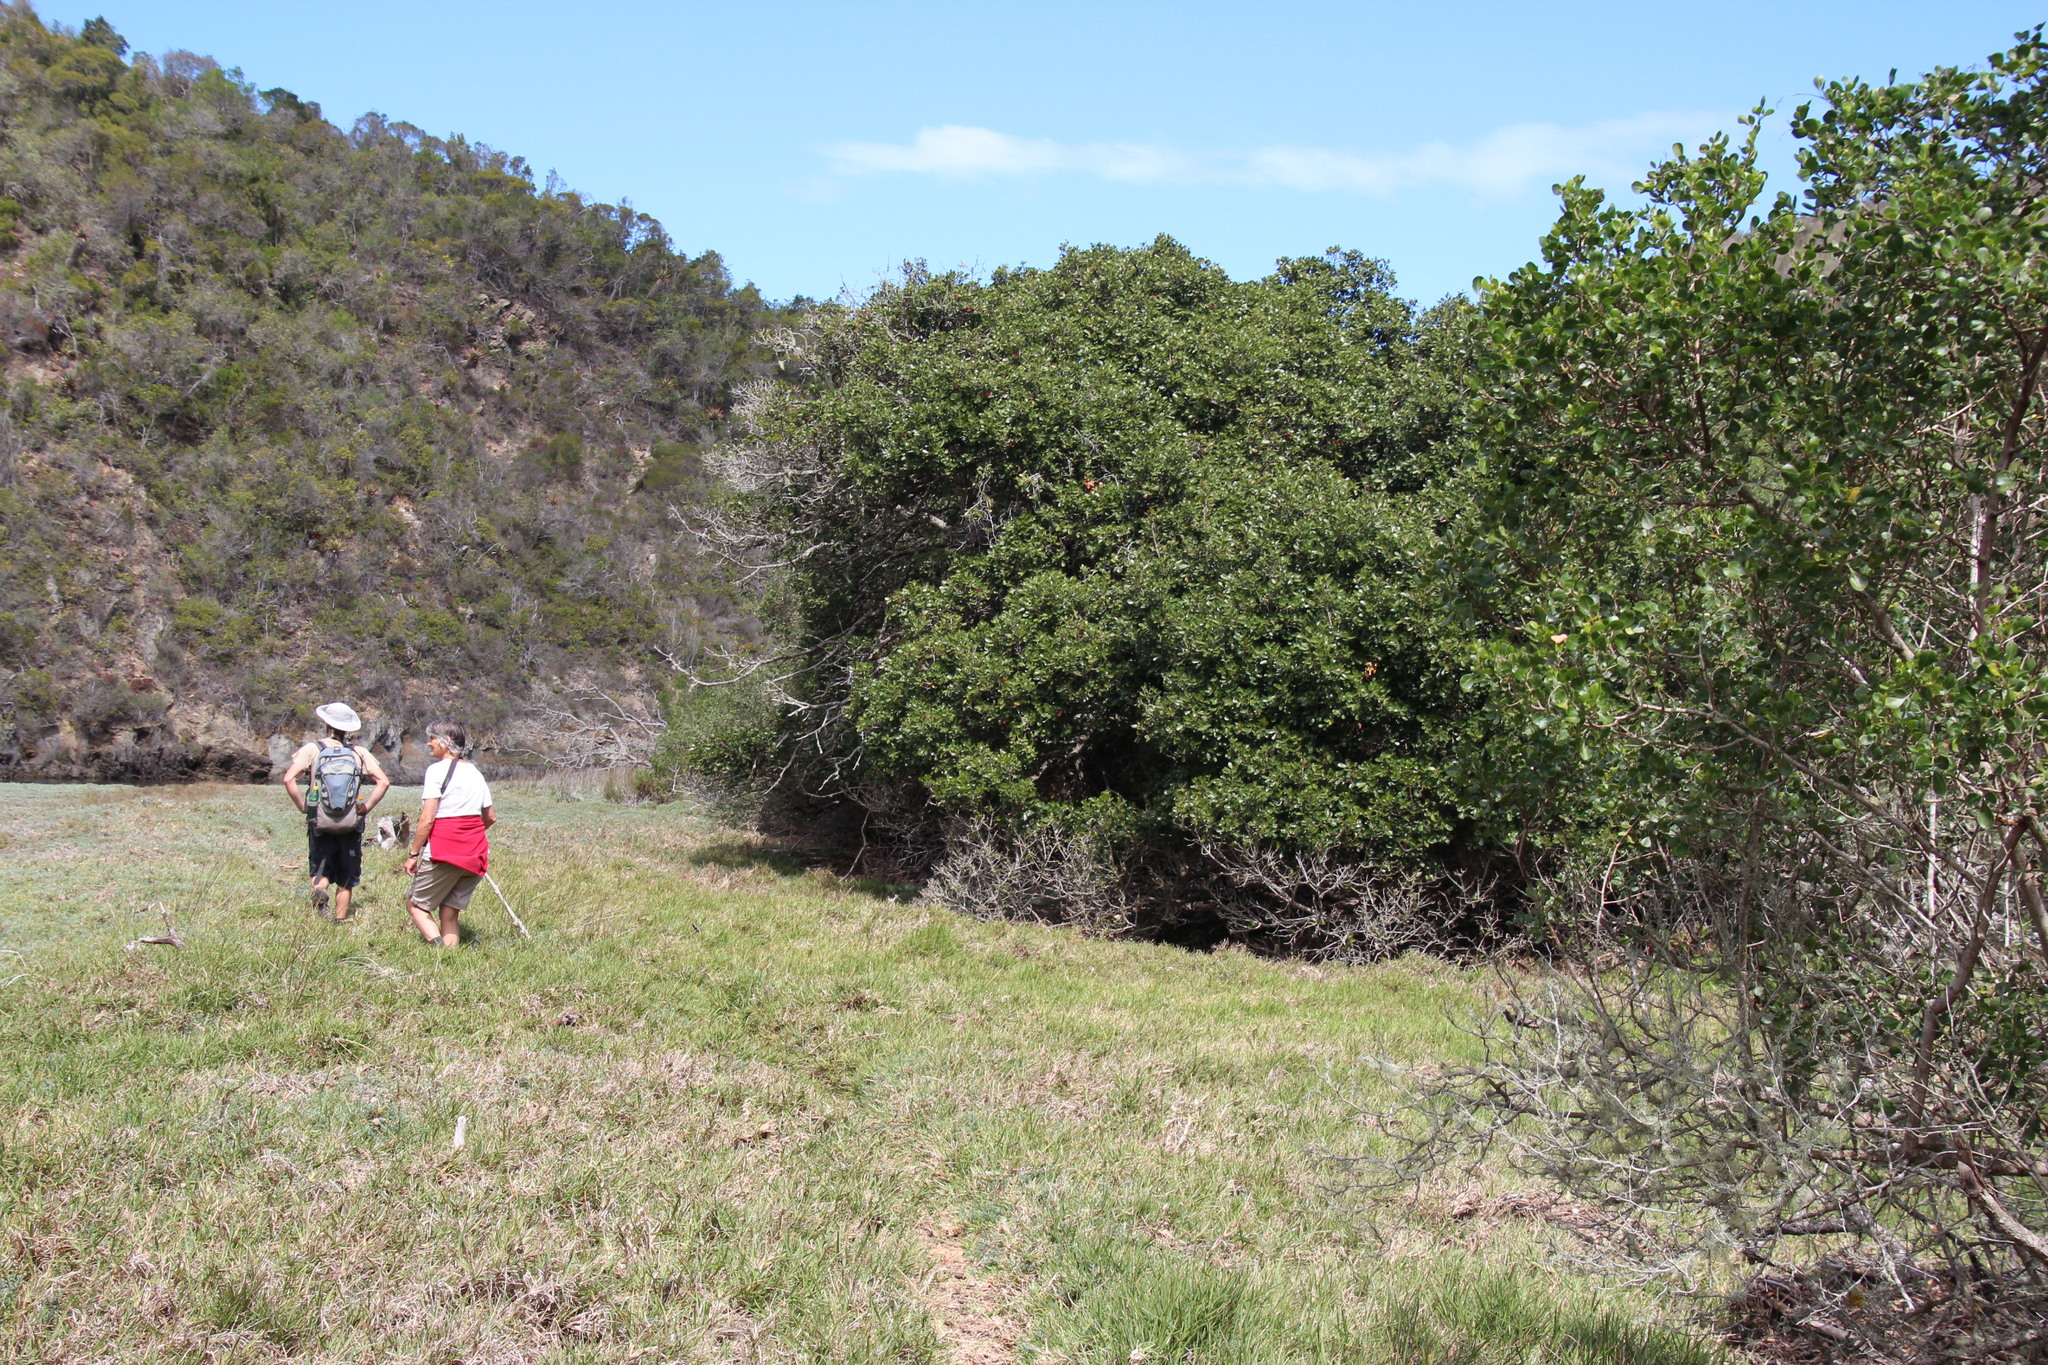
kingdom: Plantae
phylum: Tracheophyta
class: Magnoliopsida
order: Ericales
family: Sapotaceae
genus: Sideroxylon
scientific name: Sideroxylon inerme
